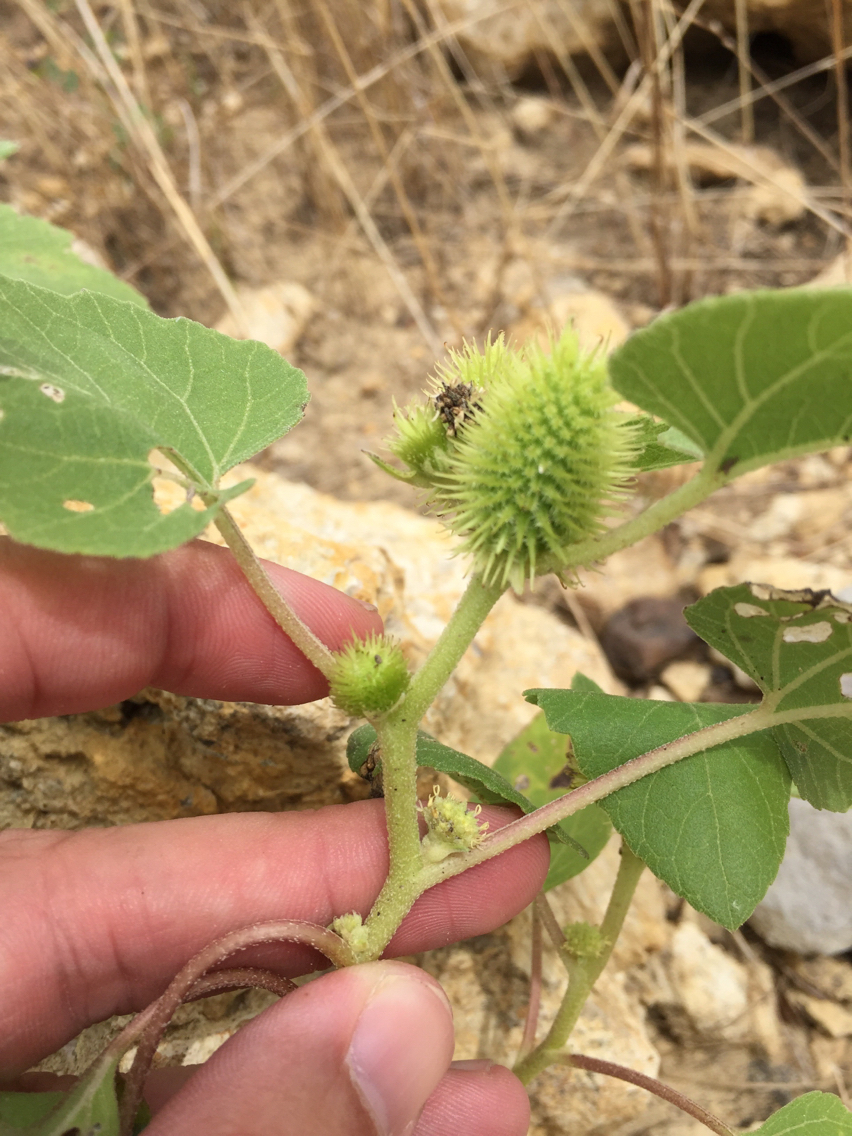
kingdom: Plantae
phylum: Tracheophyta
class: Magnoliopsida
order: Asterales
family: Asteraceae
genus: Xanthium
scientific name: Xanthium strumarium
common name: Rough cocklebur
